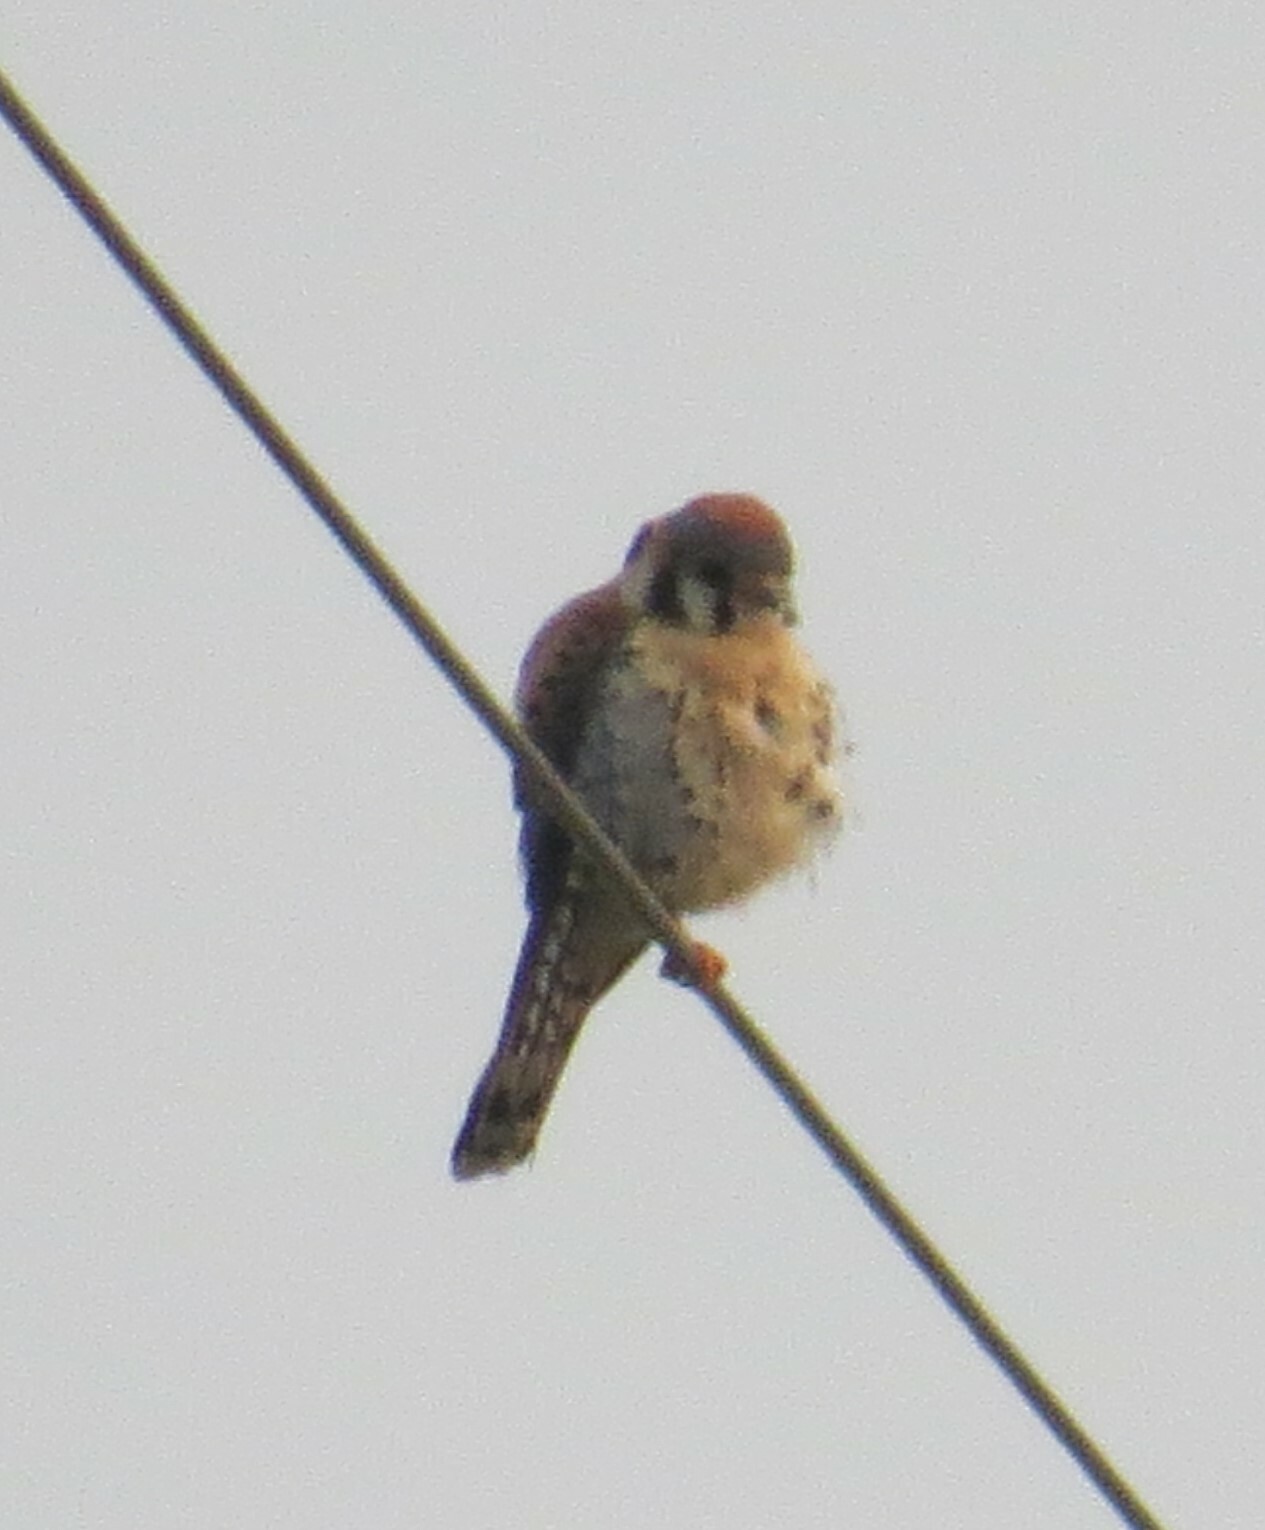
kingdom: Animalia
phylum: Chordata
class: Aves
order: Falconiformes
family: Falconidae
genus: Falco
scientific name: Falco sparverius
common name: American kestrel
